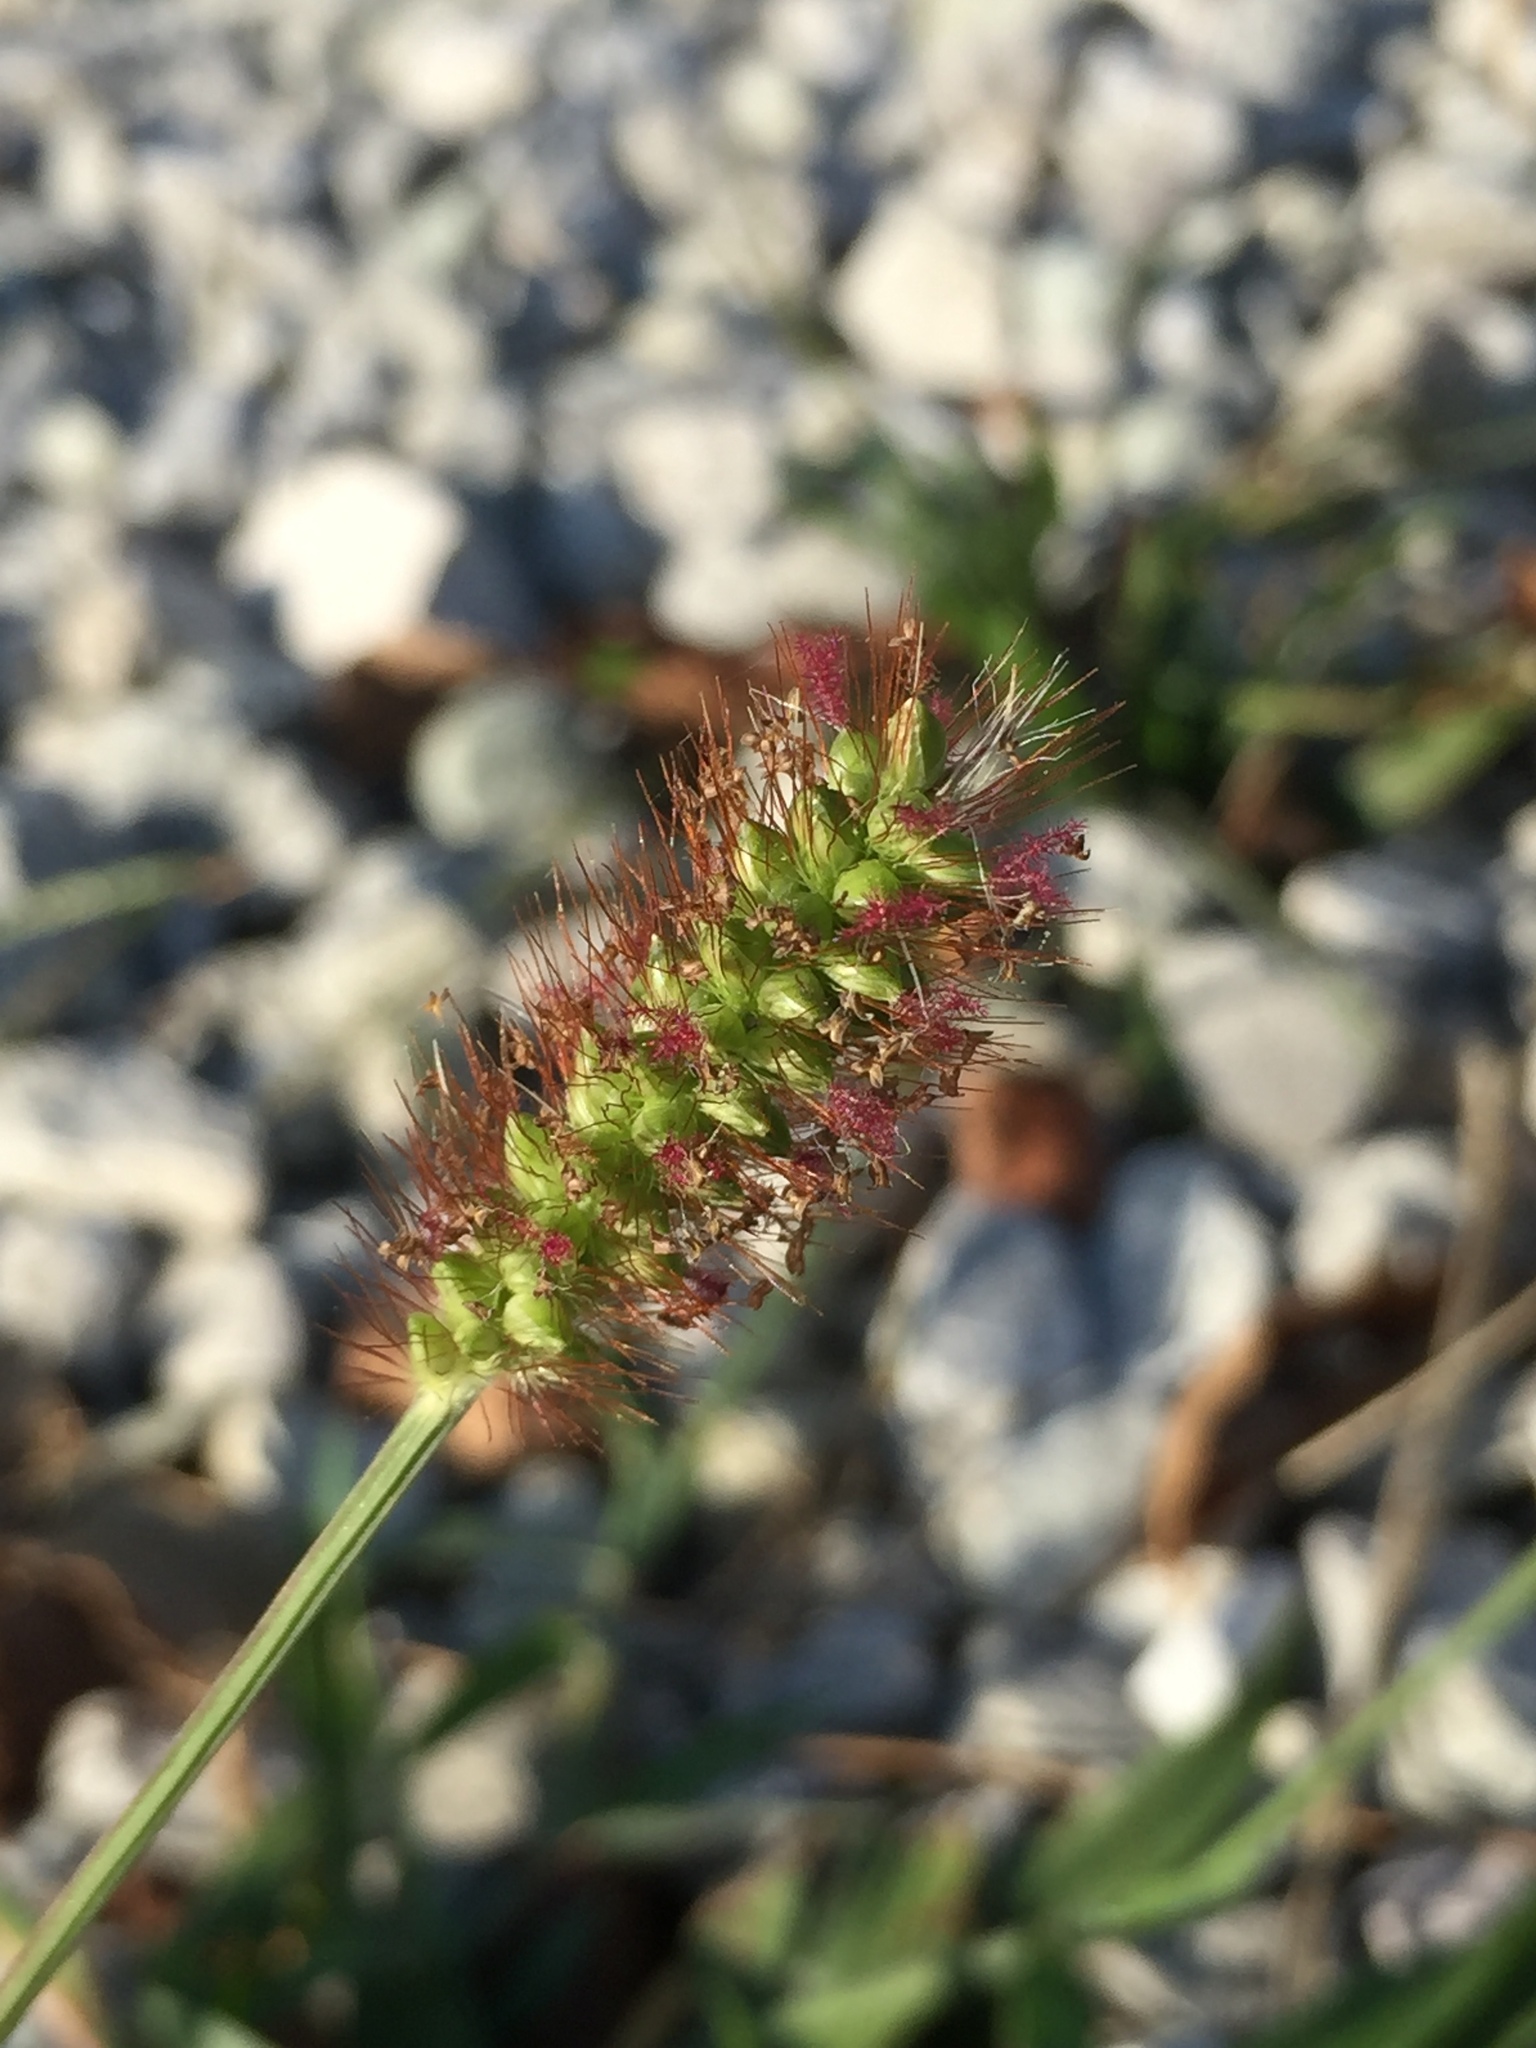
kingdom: Plantae
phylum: Tracheophyta
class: Liliopsida
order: Poales
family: Poaceae
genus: Setaria
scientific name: Setaria pumila
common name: Yellow bristle-grass
